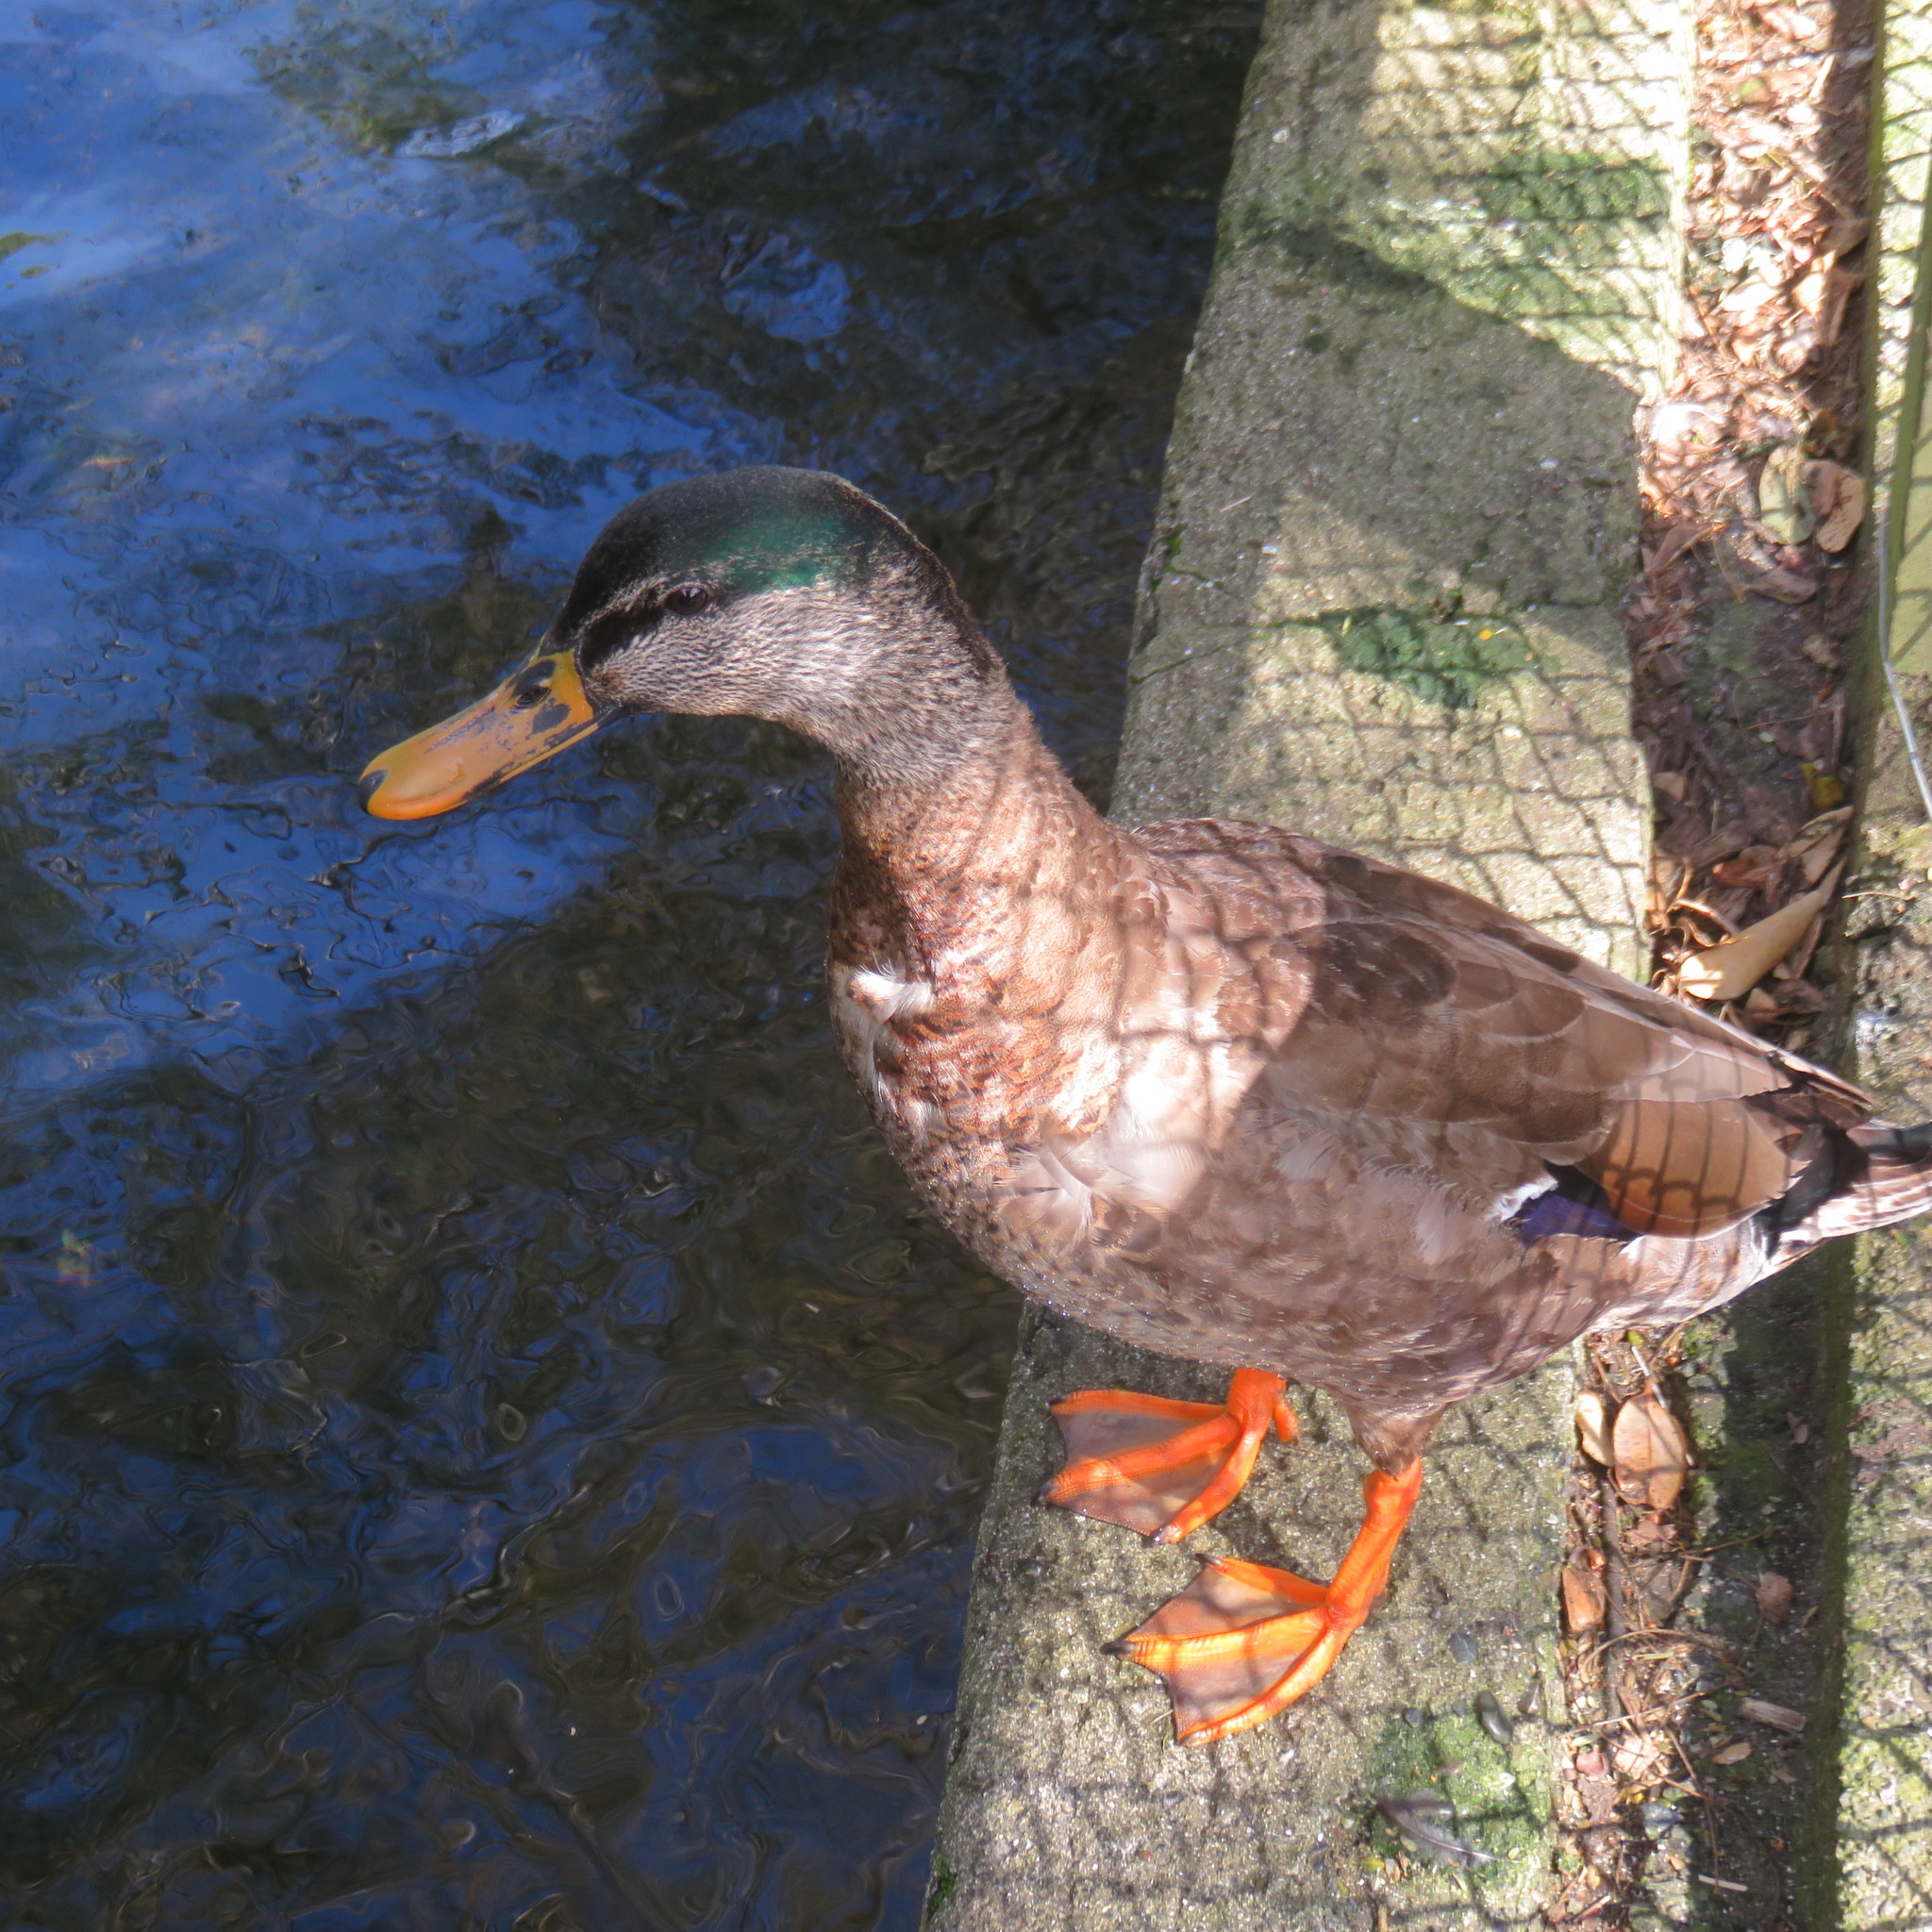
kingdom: Animalia
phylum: Chordata
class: Aves
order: Anseriformes
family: Anatidae
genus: Anas
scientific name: Anas
